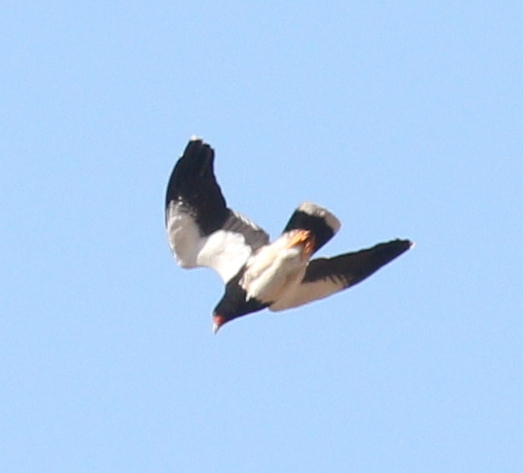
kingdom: Animalia
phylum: Chordata
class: Aves
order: Falconiformes
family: Falconidae
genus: Daptrius
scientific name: Daptrius
